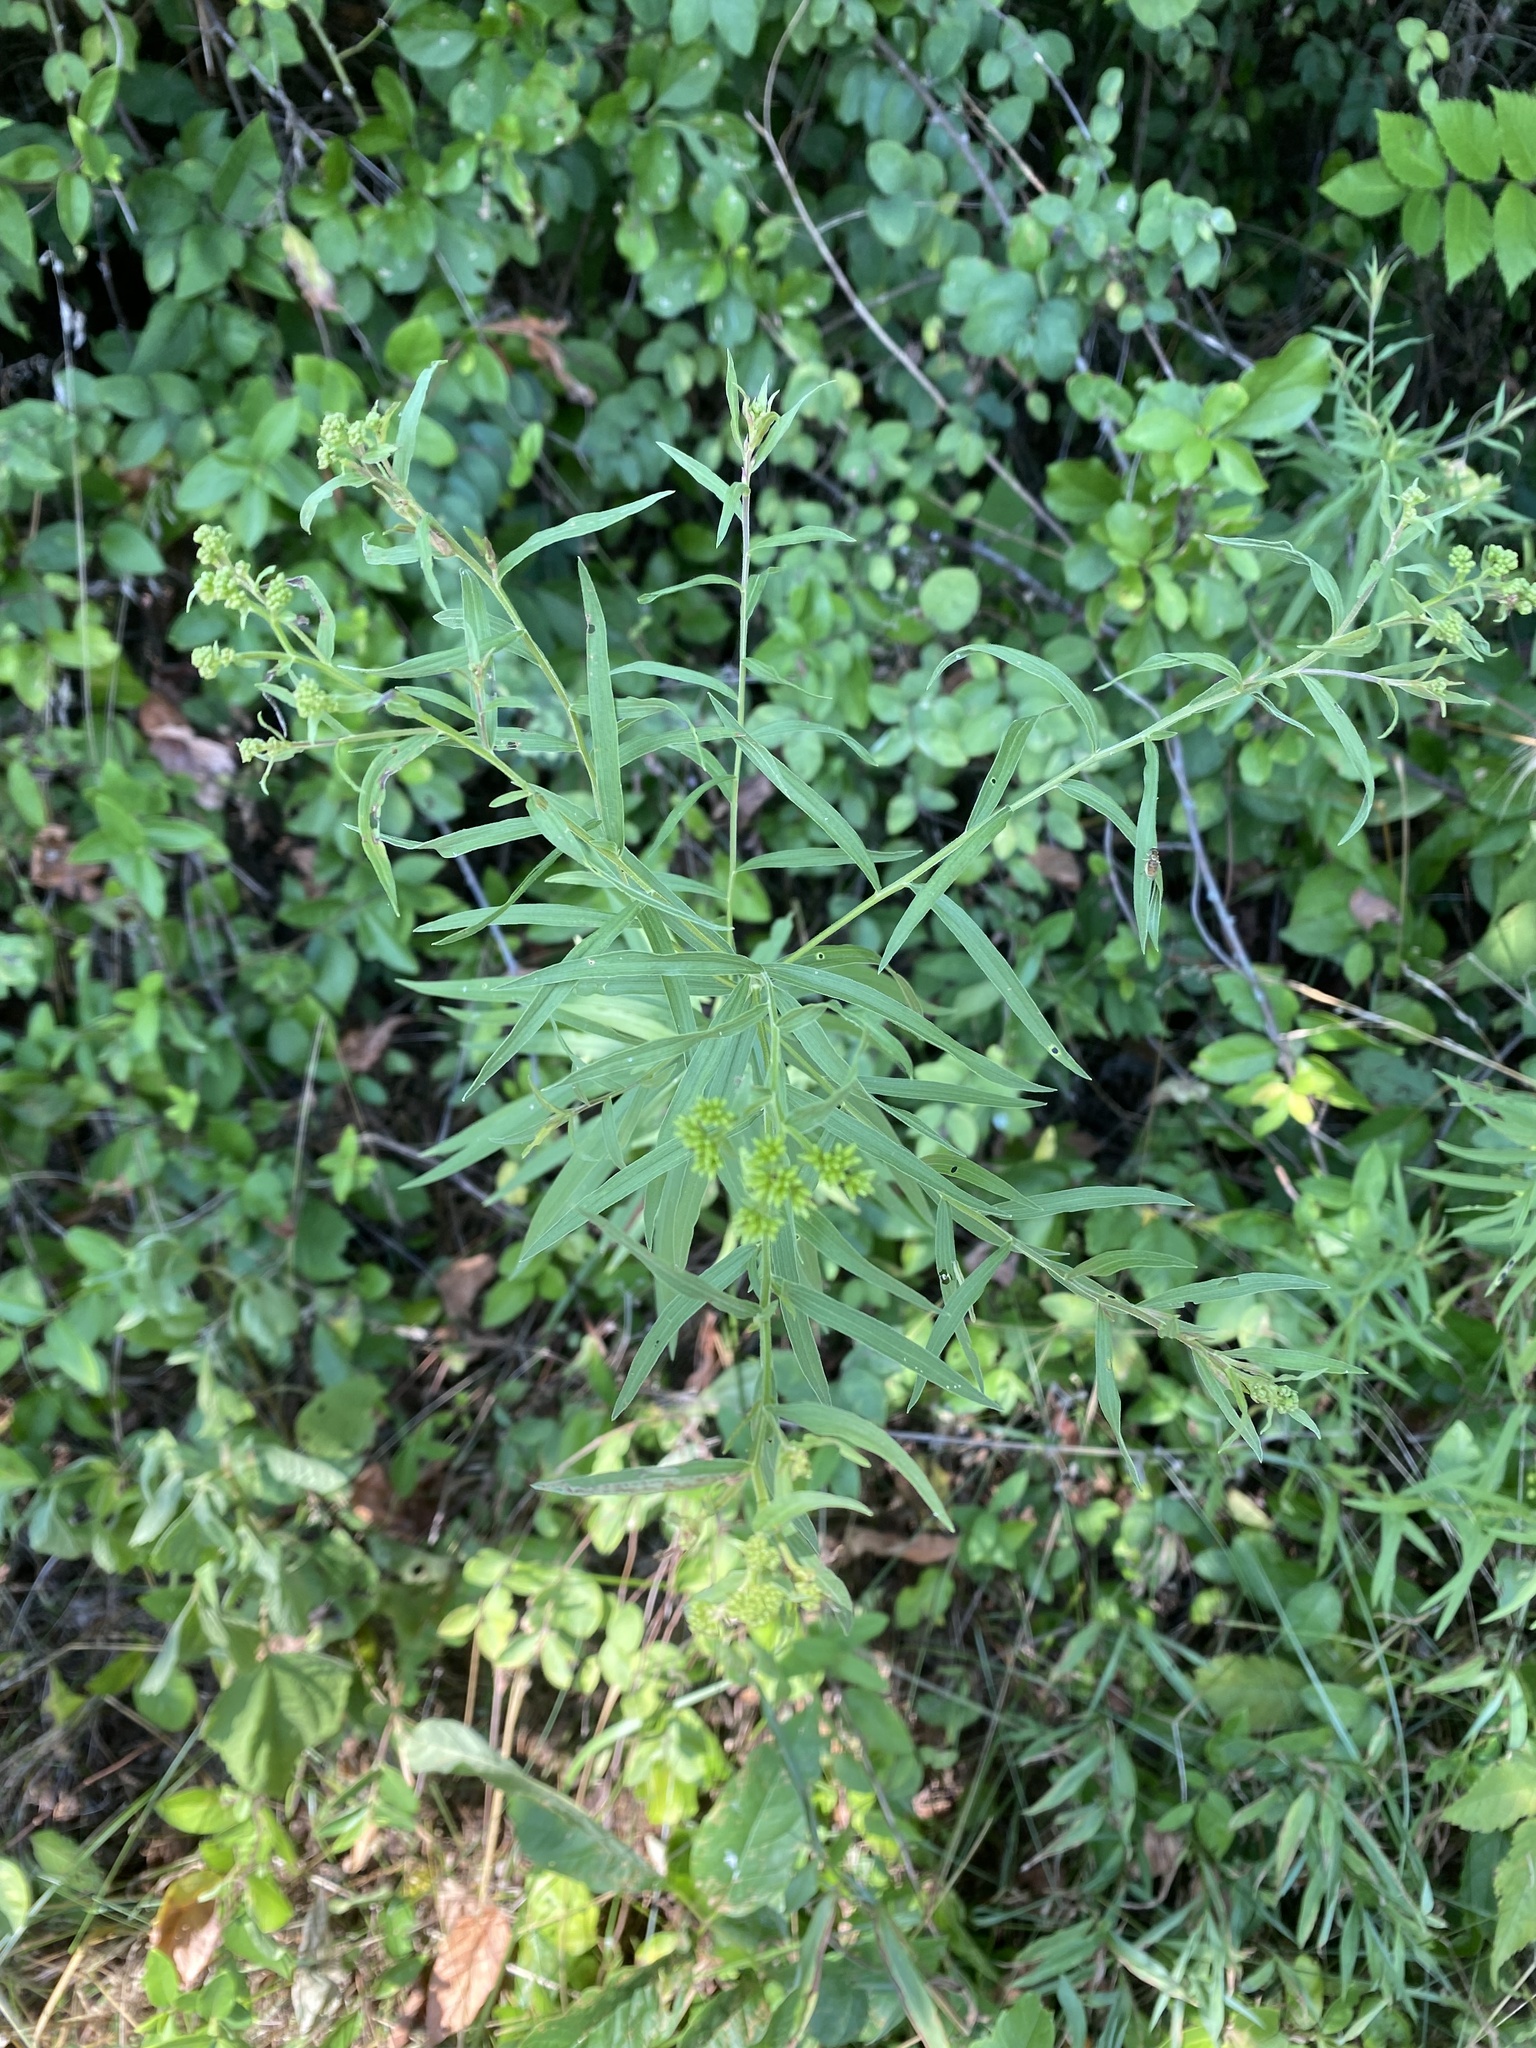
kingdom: Plantae
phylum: Tracheophyta
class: Magnoliopsida
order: Asterales
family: Asteraceae
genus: Euthamia
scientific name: Euthamia graminifolia
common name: Common goldentop
